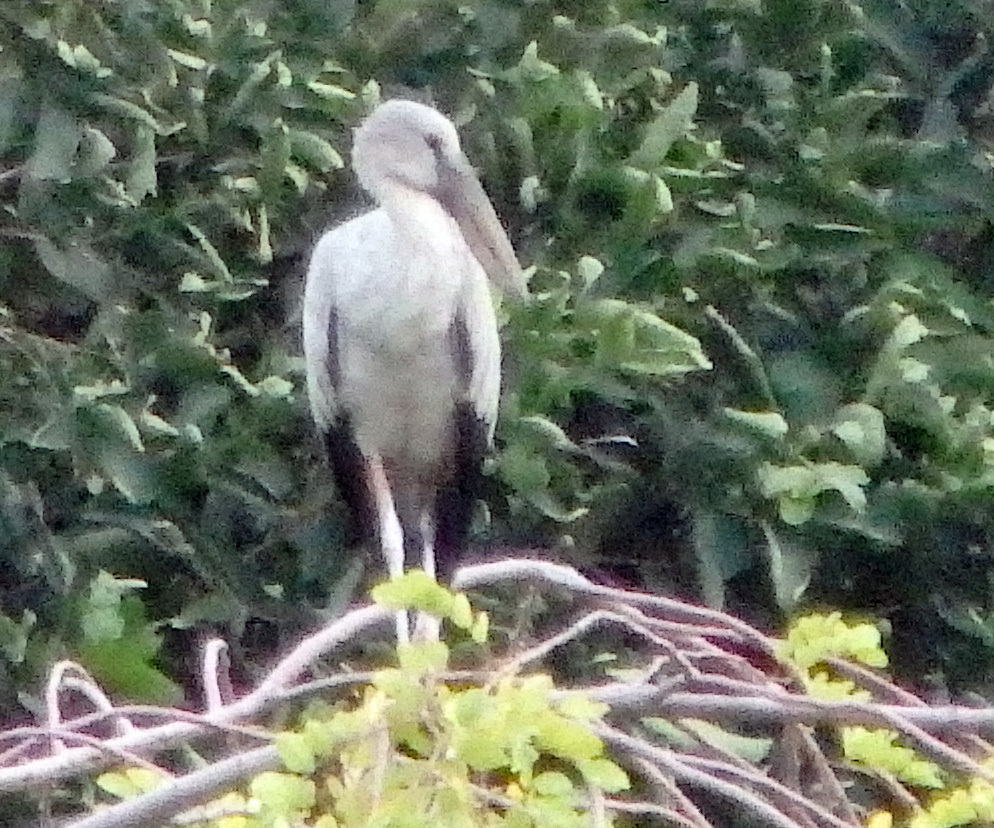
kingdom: Animalia
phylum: Chordata
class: Aves
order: Ciconiiformes
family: Ciconiidae
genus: Anastomus
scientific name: Anastomus oscitans
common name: Asian openbill
